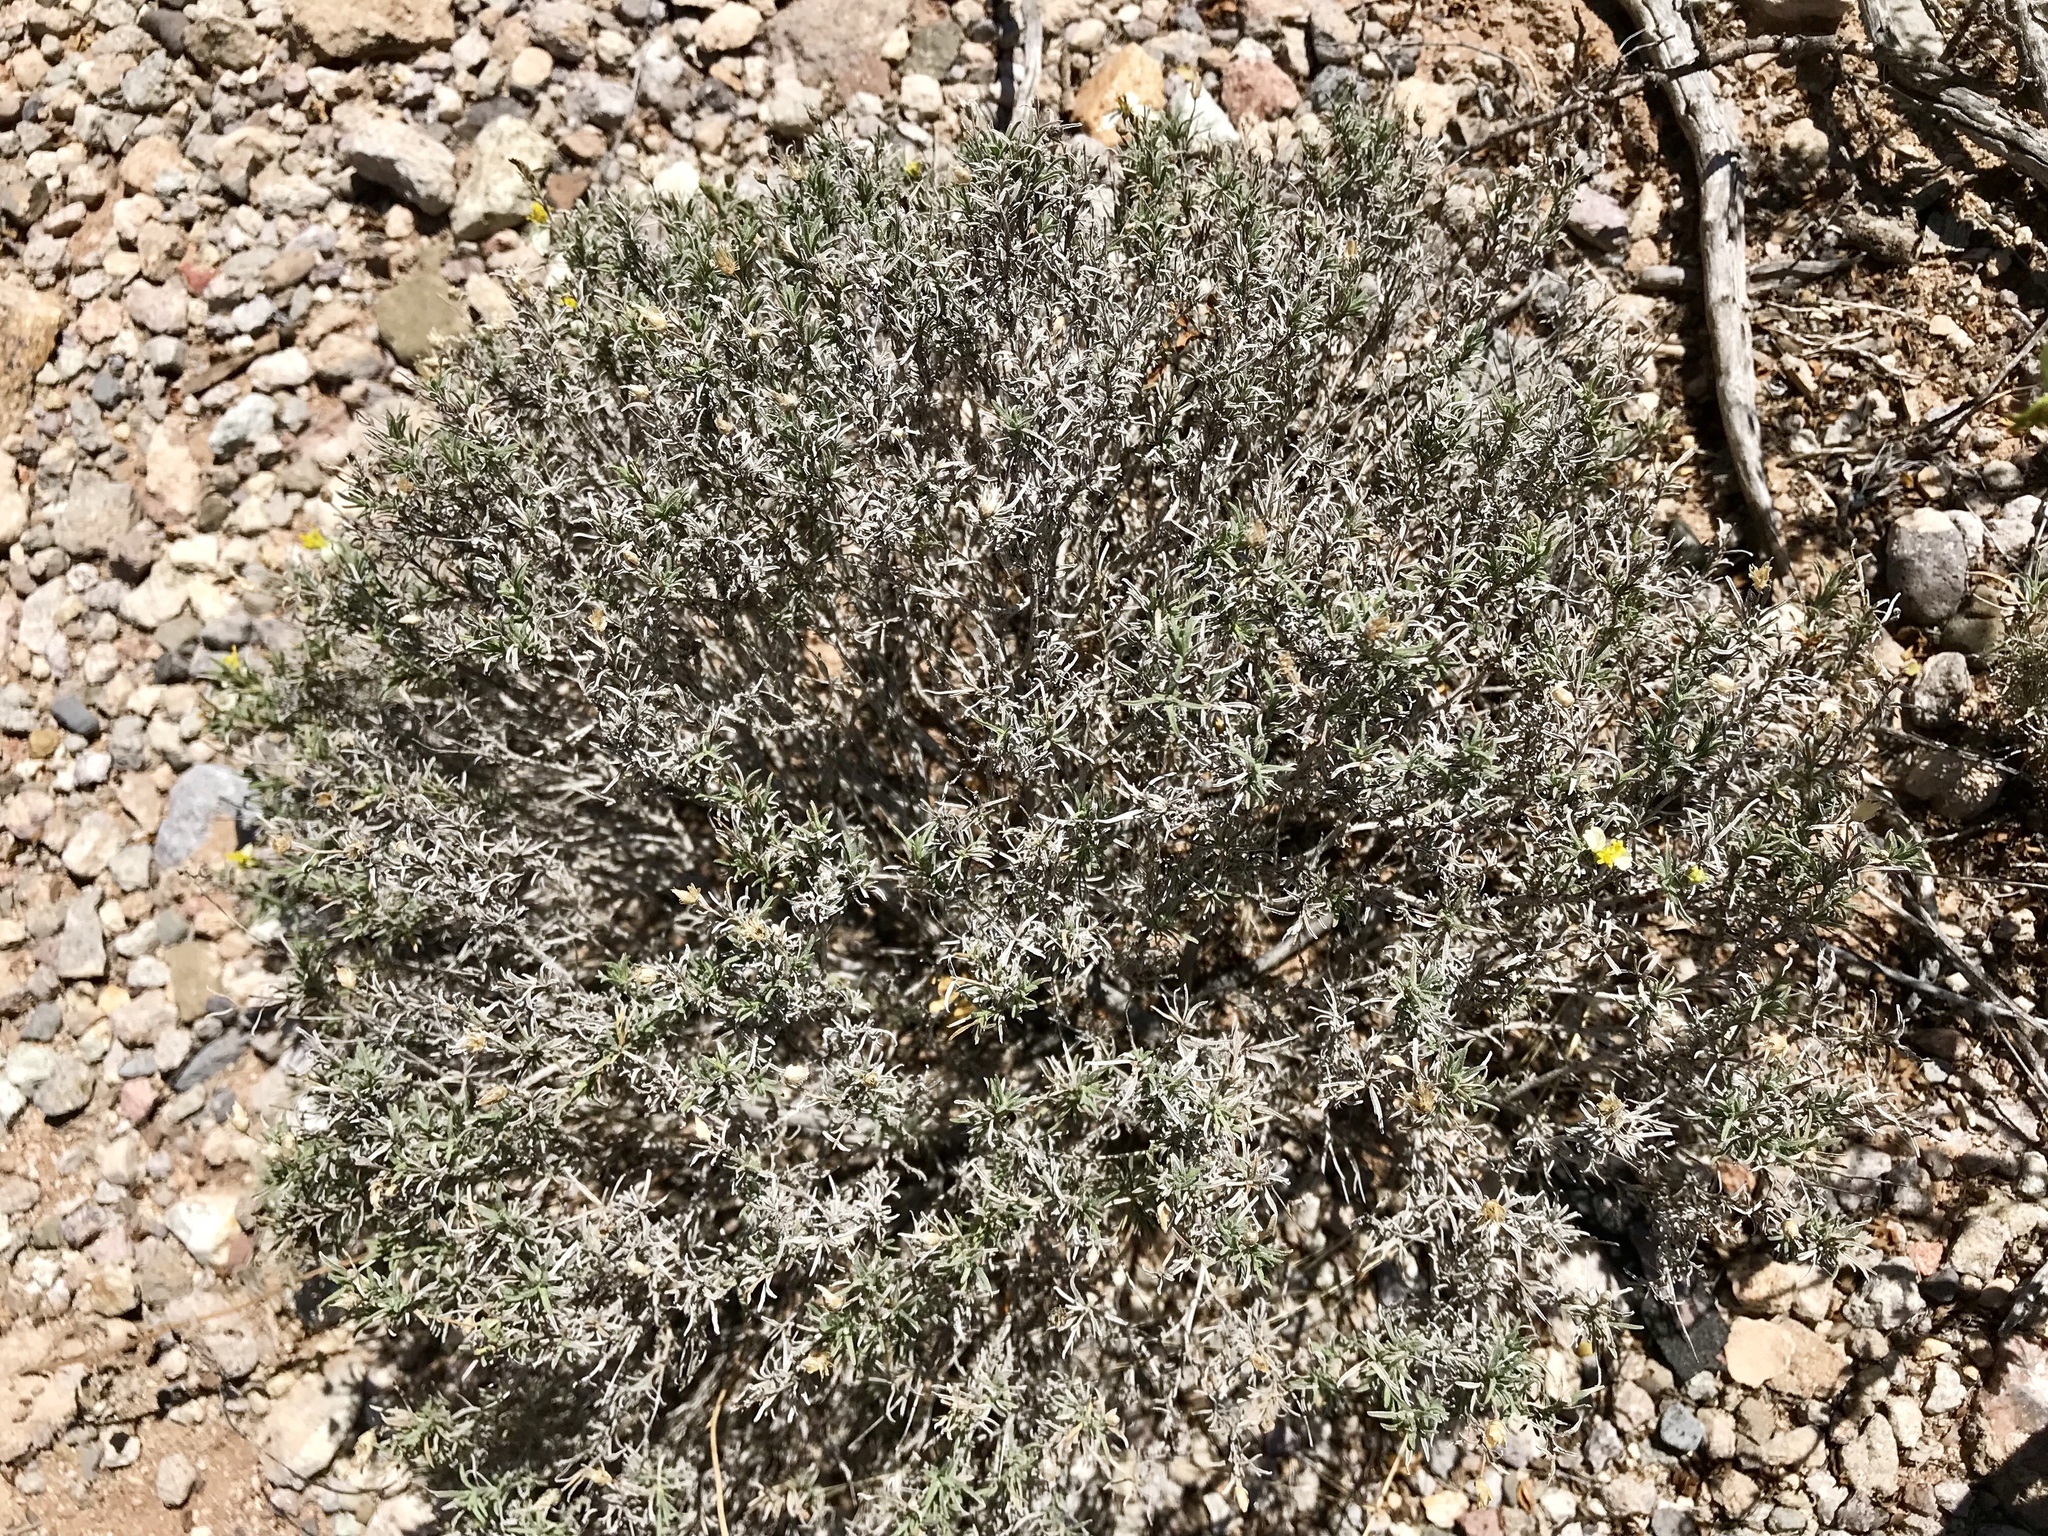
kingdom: Plantae
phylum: Tracheophyta
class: Magnoliopsida
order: Asterales
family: Asteraceae
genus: Zinnia
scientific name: Zinnia acerosa
